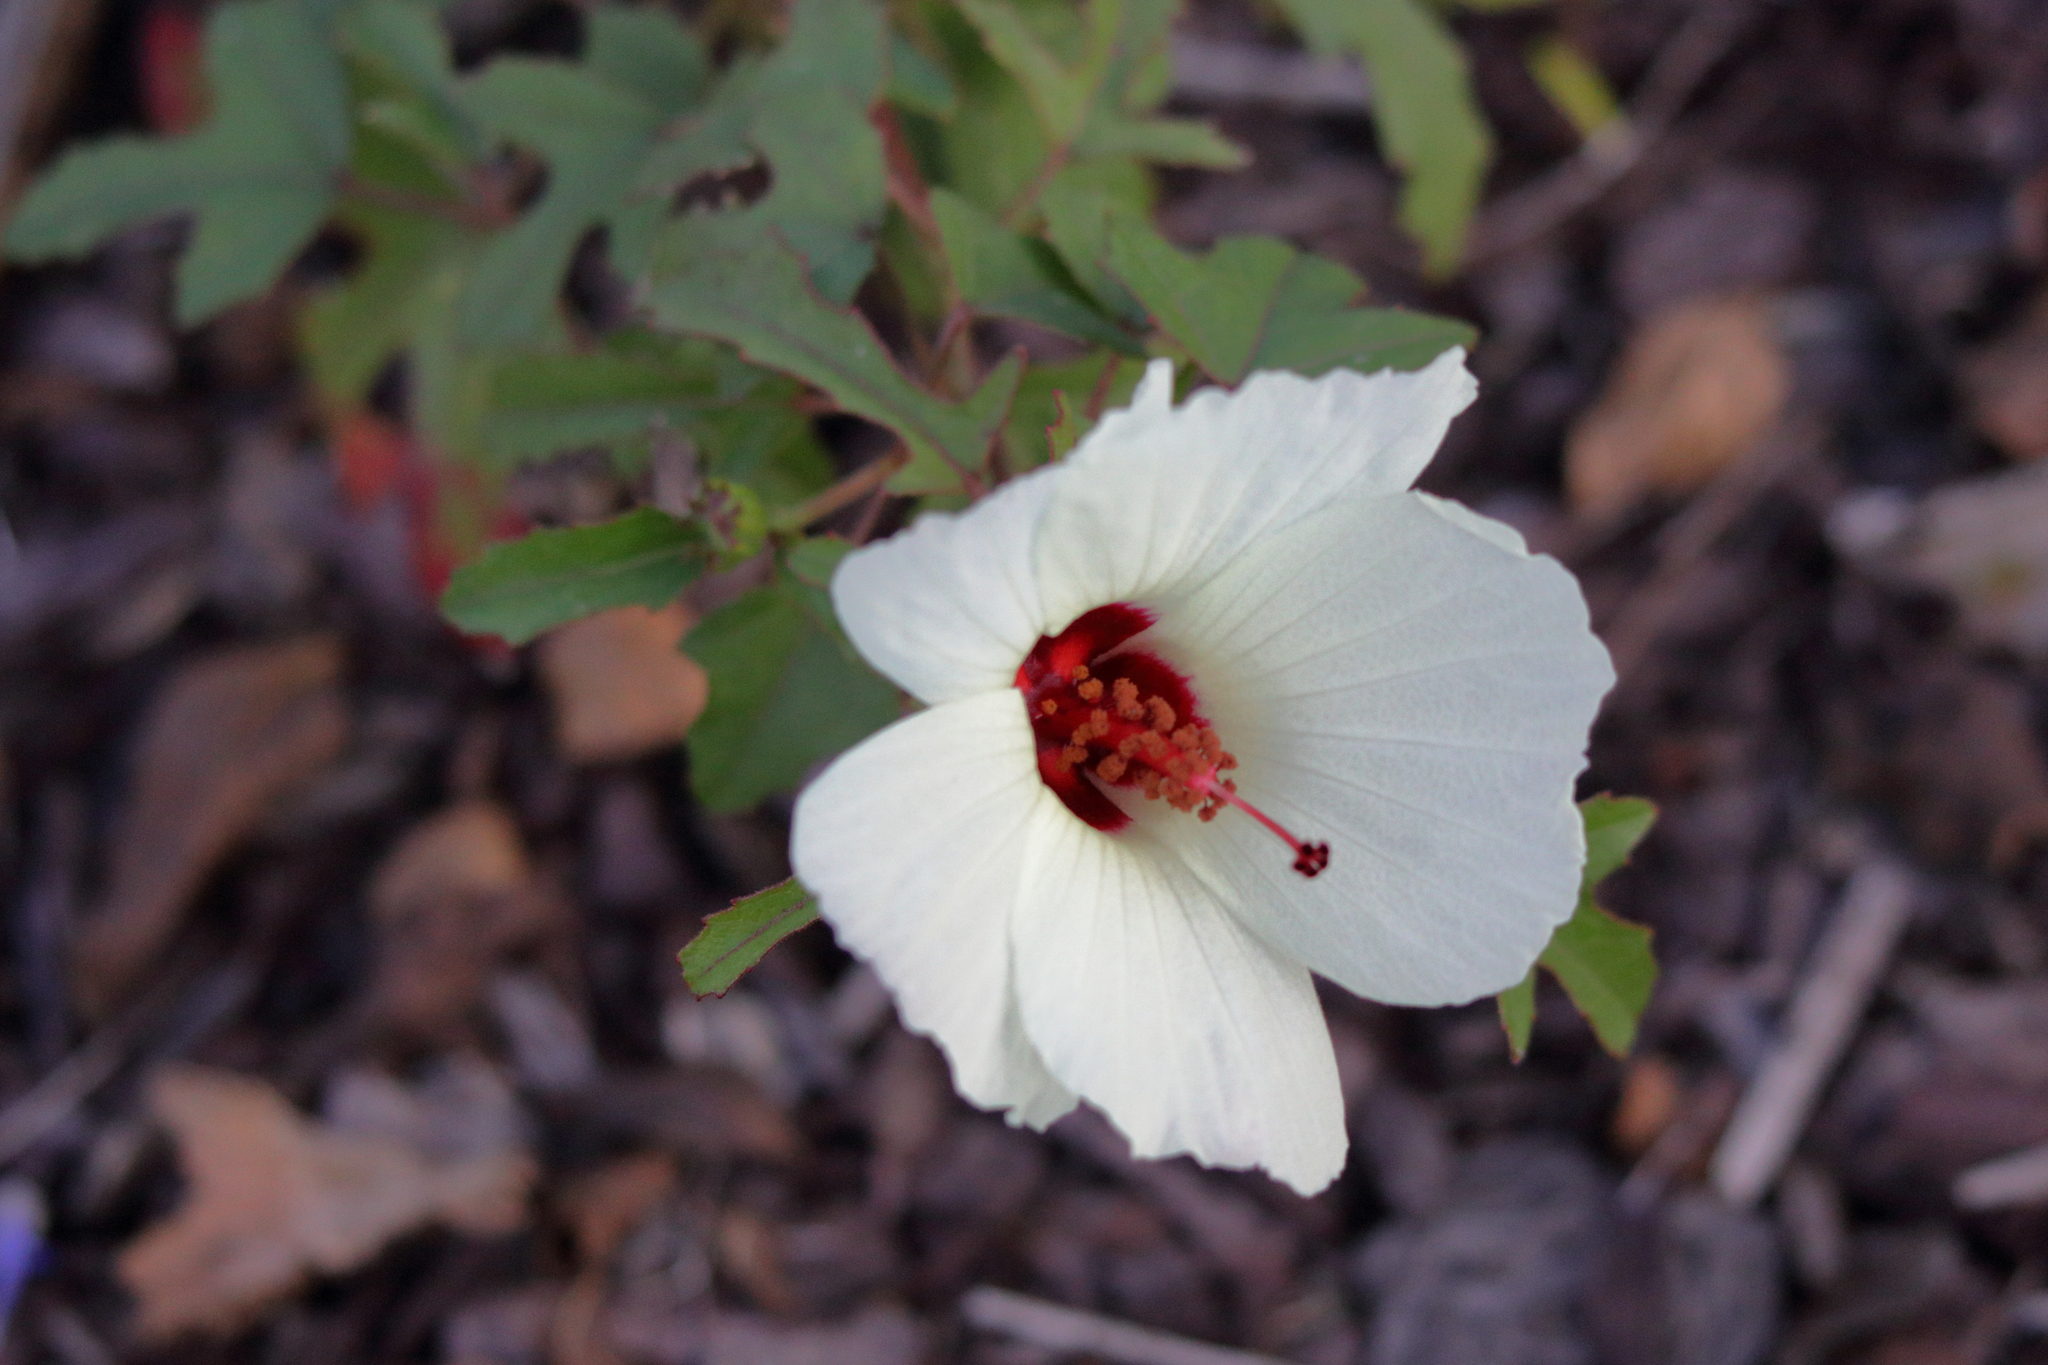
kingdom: Plantae
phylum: Tracheophyta
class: Magnoliopsida
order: Malvales
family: Malvaceae
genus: Hibiscus
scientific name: Hibiscus aculeatus
